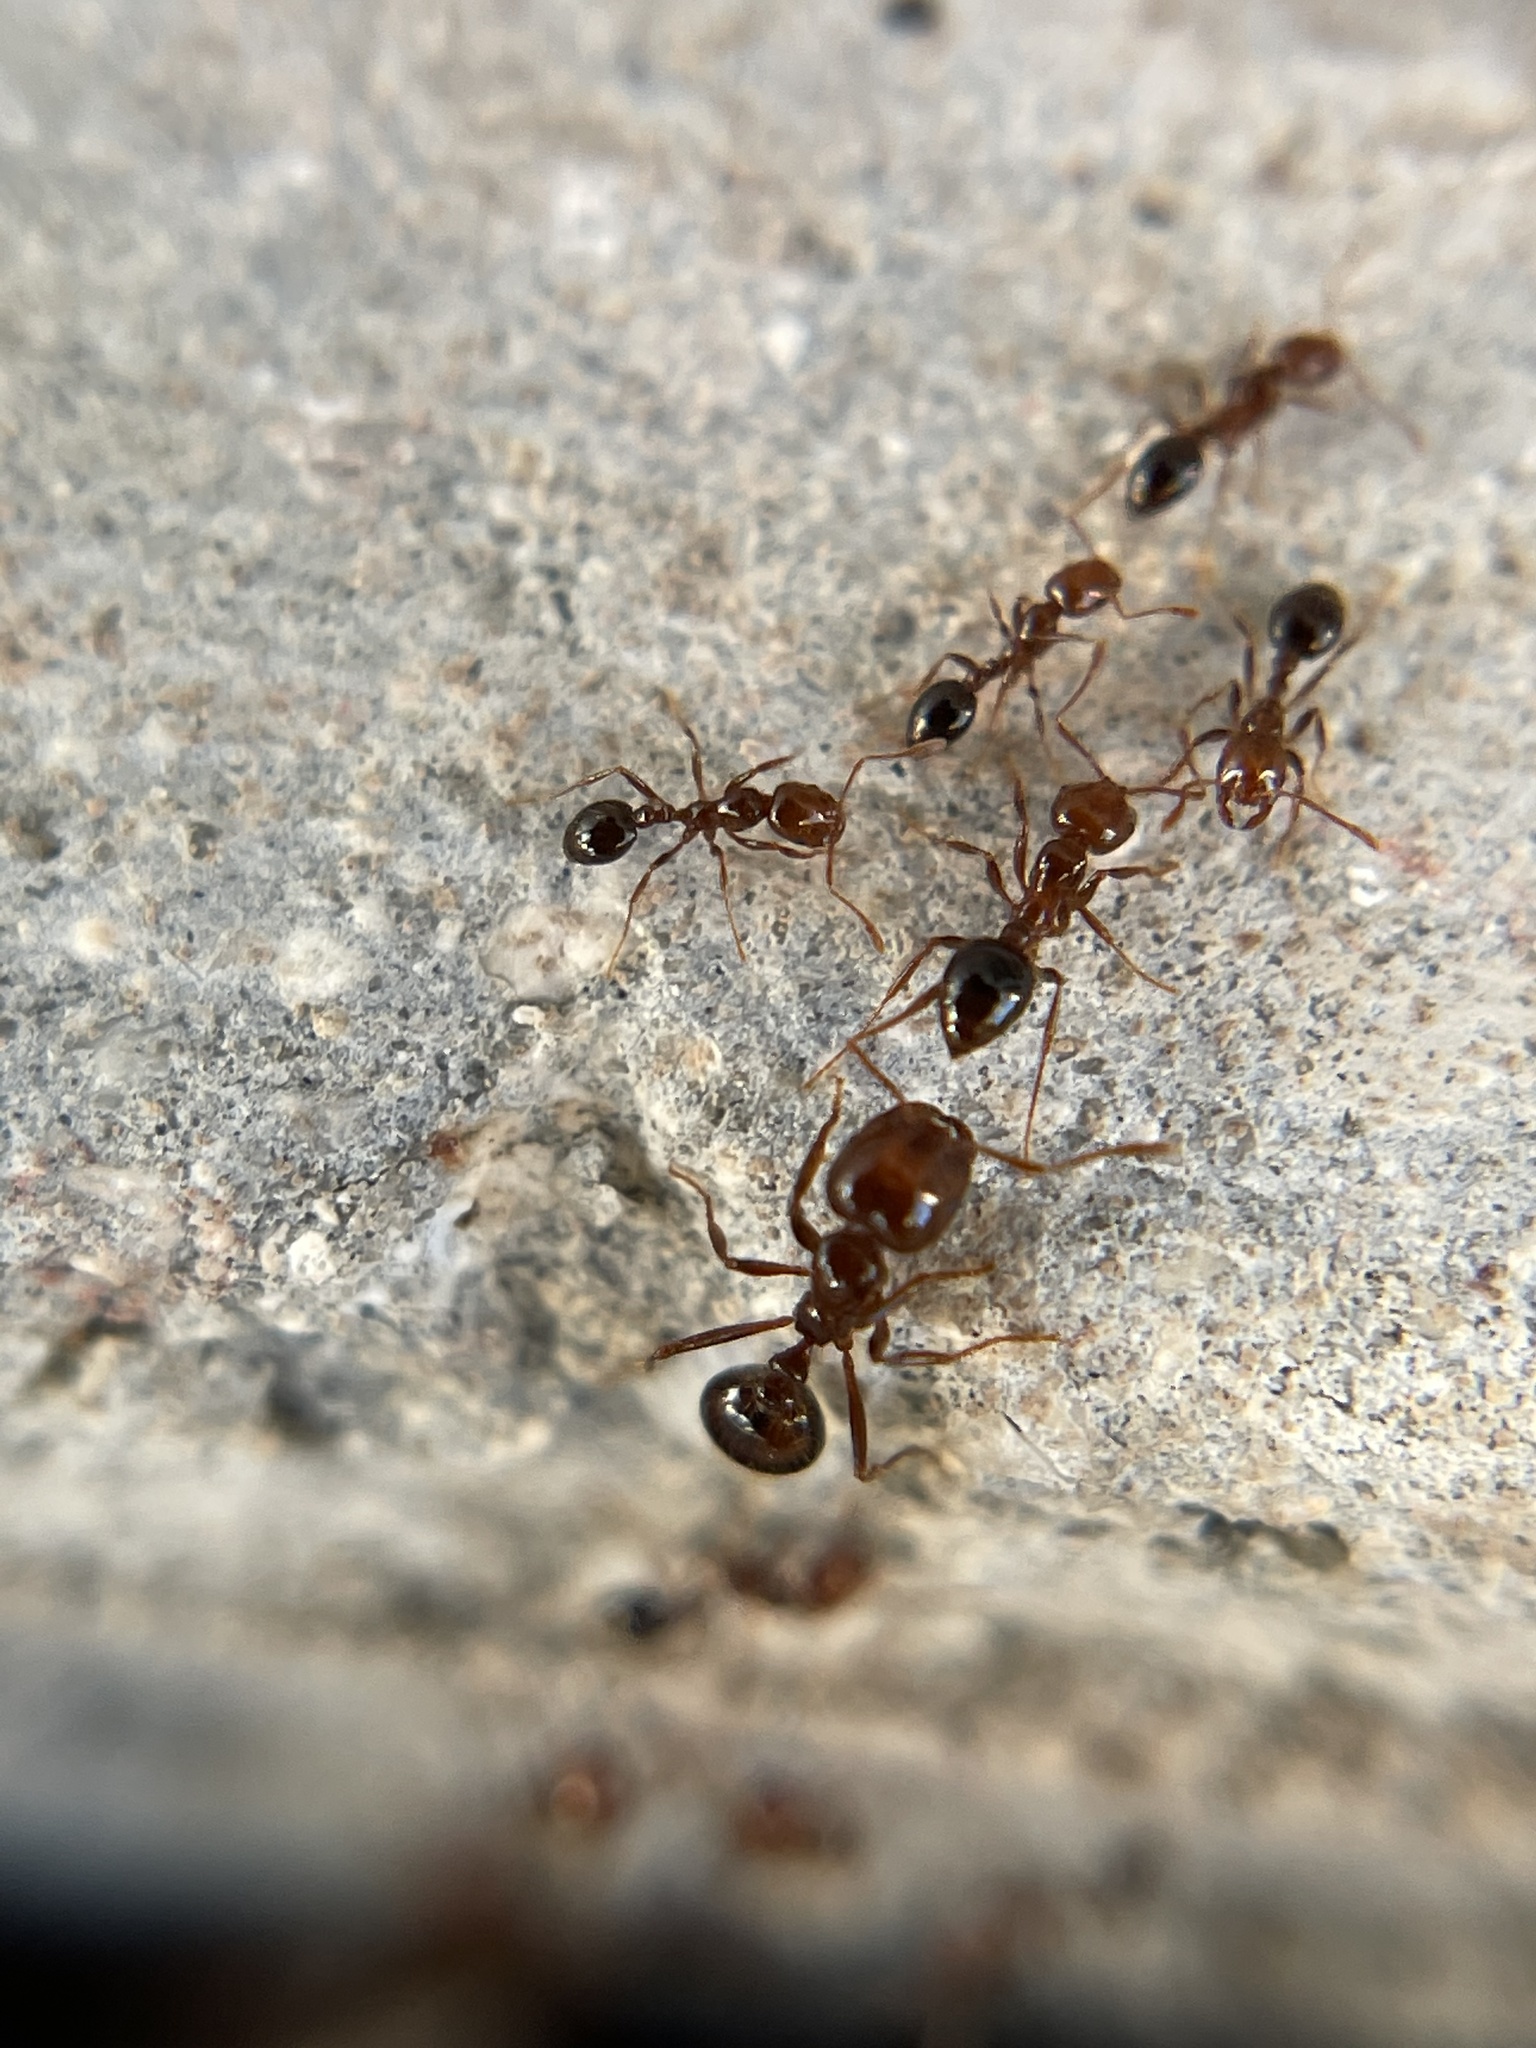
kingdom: Animalia
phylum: Arthropoda
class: Insecta
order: Hymenoptera
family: Formicidae
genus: Solenopsis
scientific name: Solenopsis invicta
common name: Red imported fire ant
